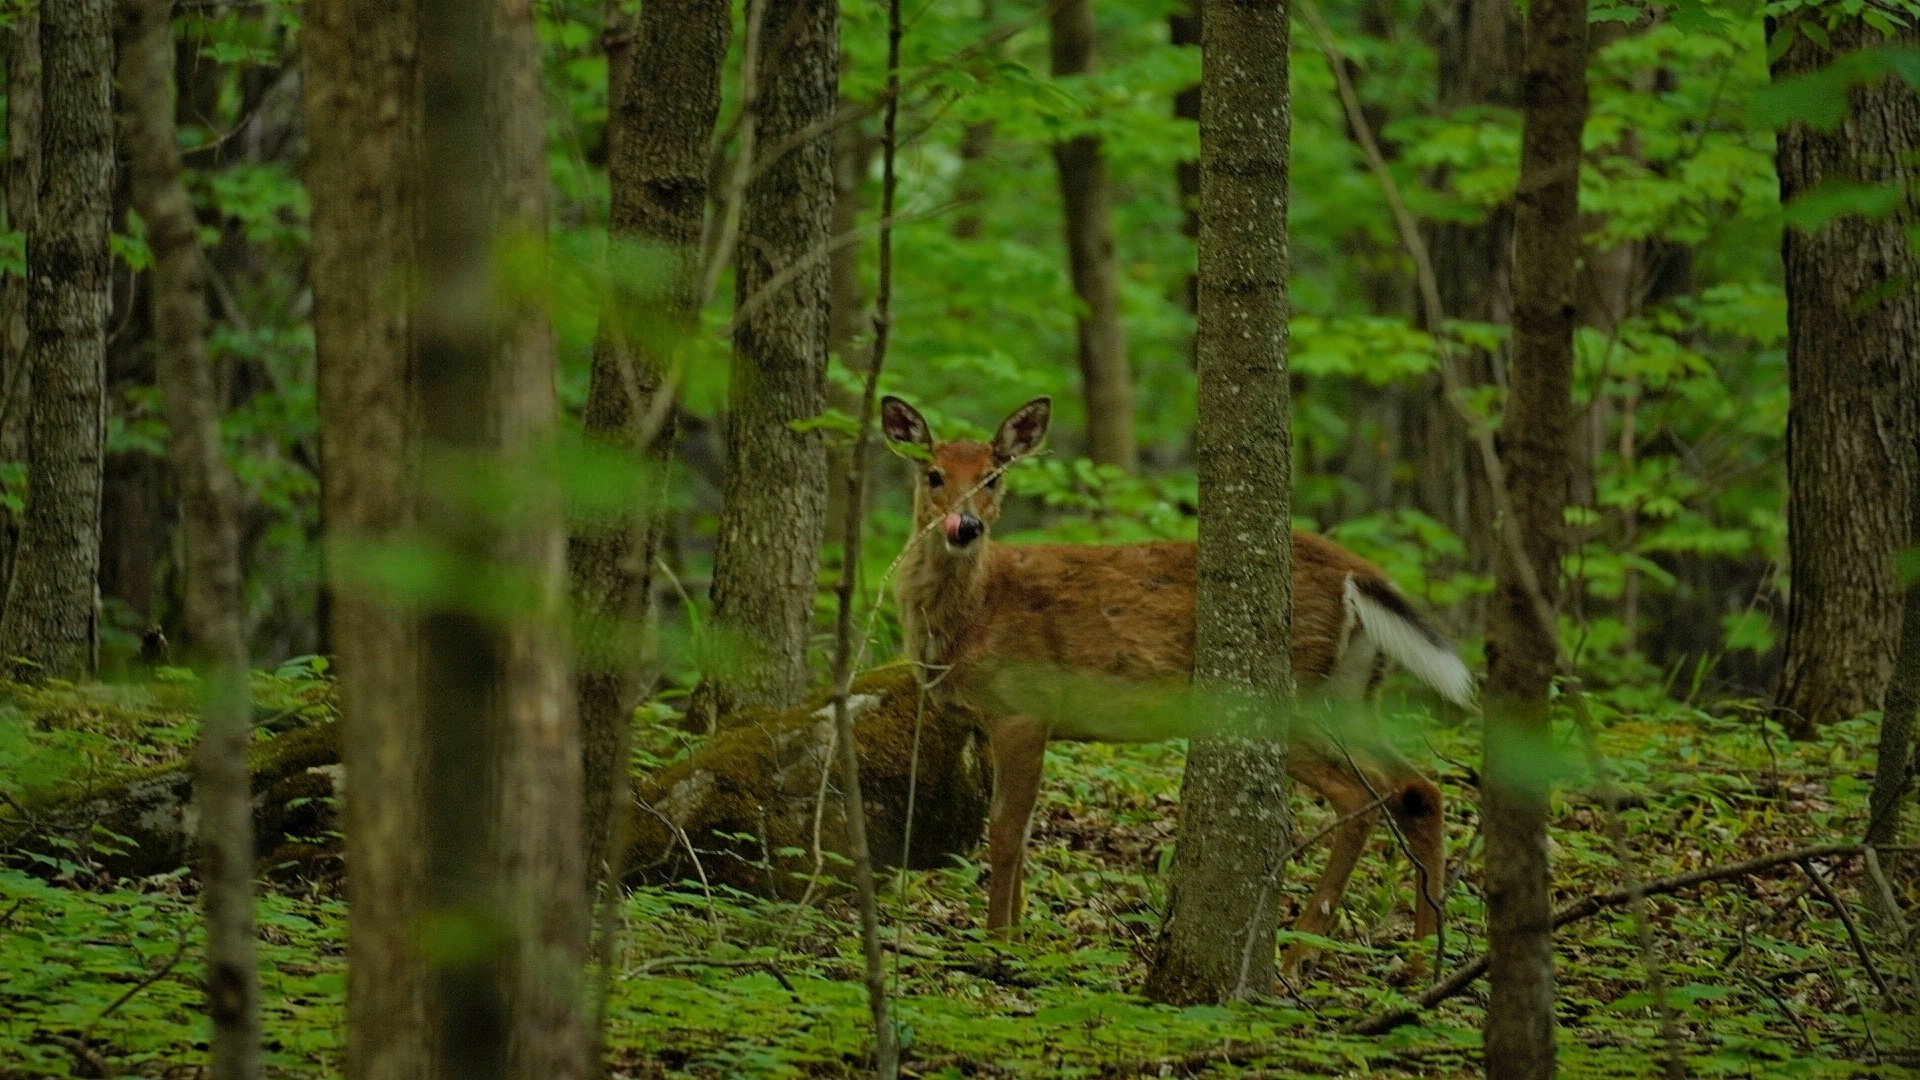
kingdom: Animalia
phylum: Chordata
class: Mammalia
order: Artiodactyla
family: Cervidae
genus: Odocoileus
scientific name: Odocoileus virginianus
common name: White-tailed deer
